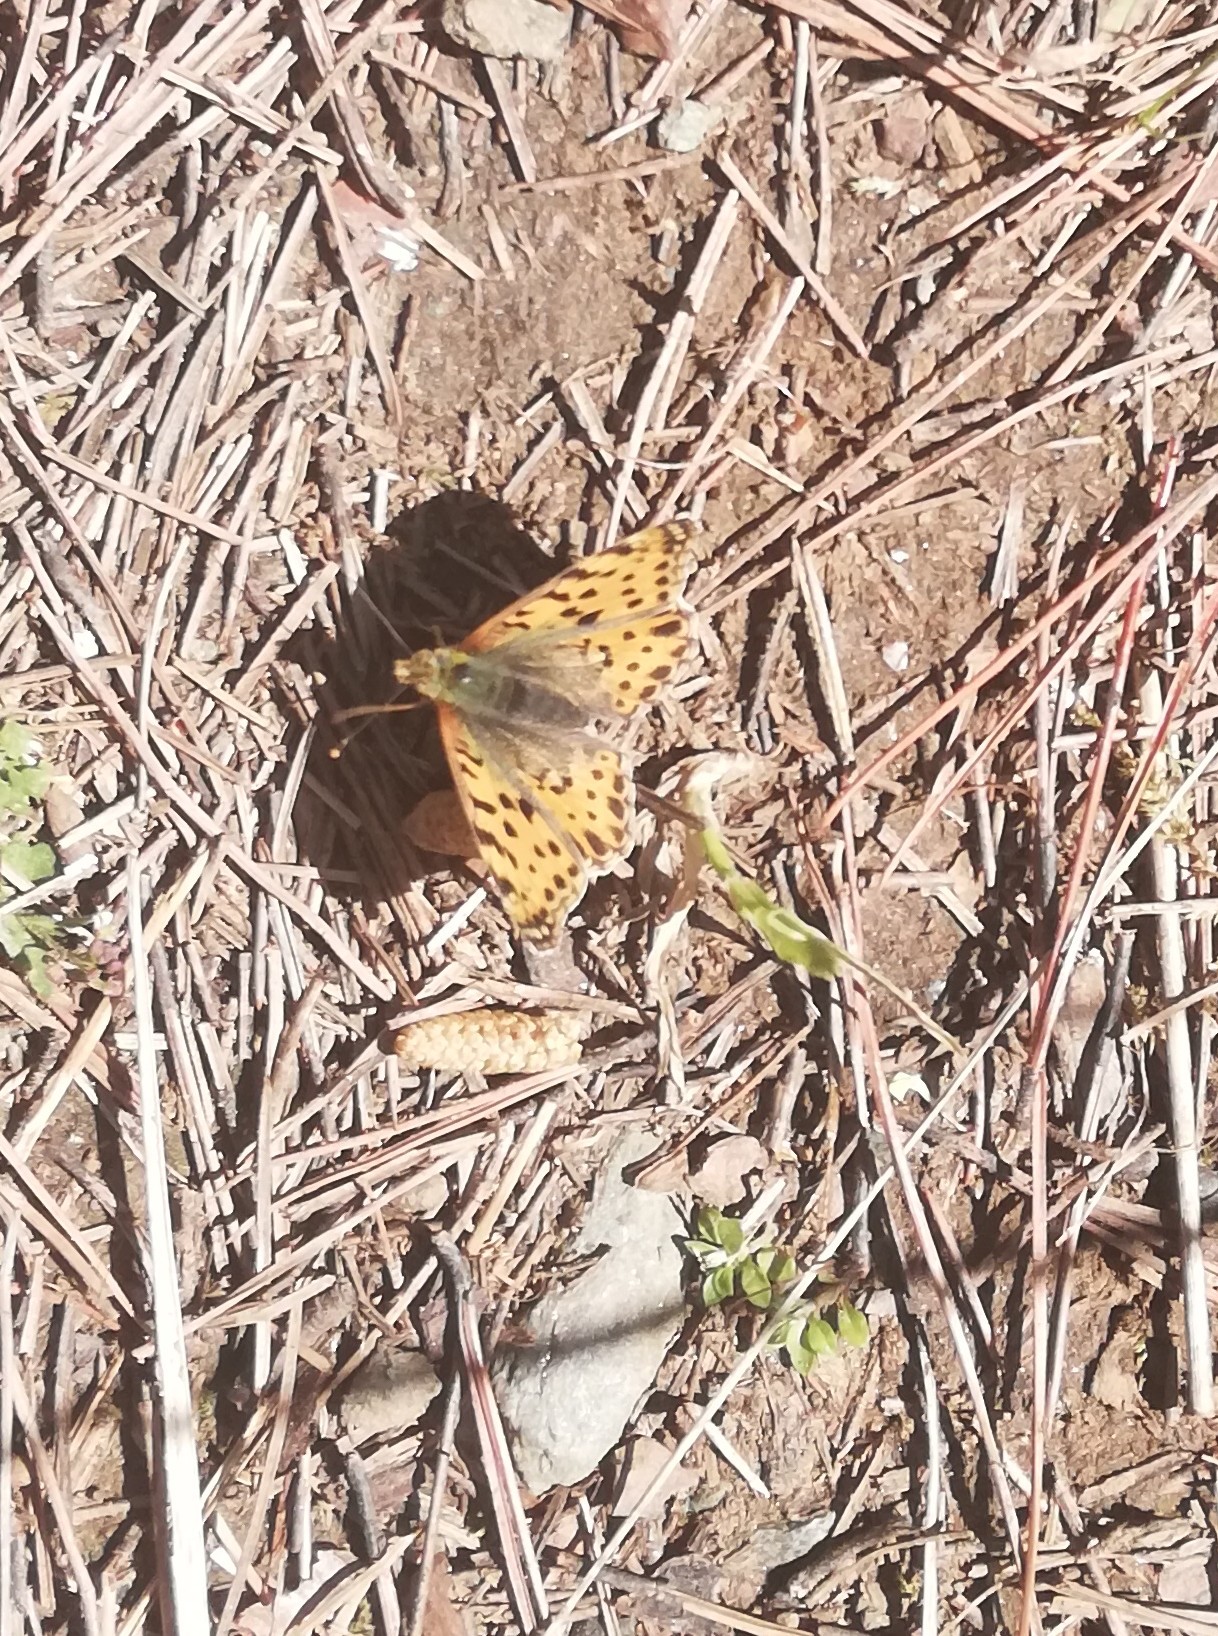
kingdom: Animalia
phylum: Arthropoda
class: Insecta
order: Lepidoptera
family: Nymphalidae
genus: Issoria
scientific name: Issoria lathonia
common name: Queen of spain fritillary
